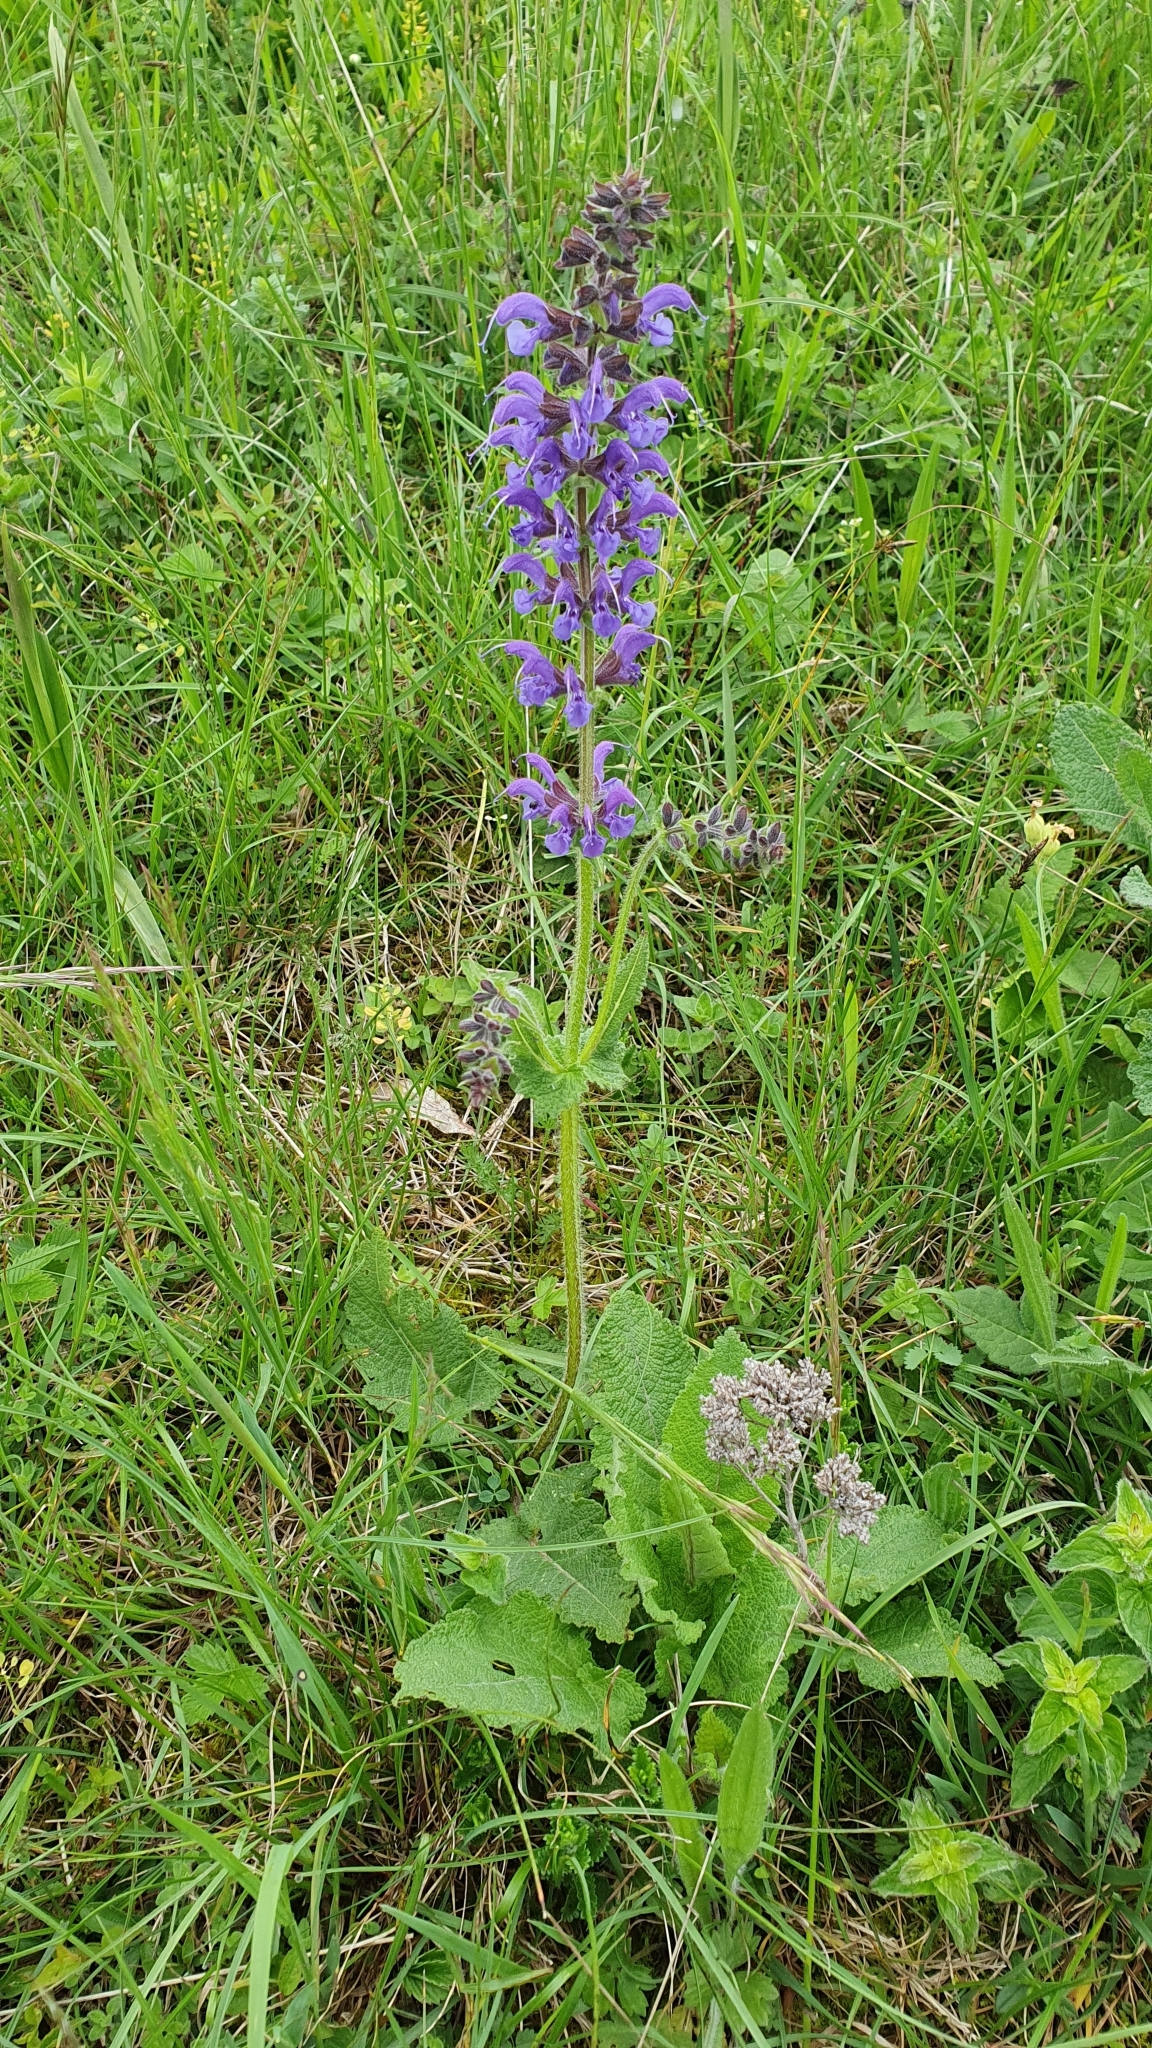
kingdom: Plantae
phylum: Tracheophyta
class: Magnoliopsida
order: Lamiales
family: Lamiaceae
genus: Salvia
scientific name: Salvia pratensis
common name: Meadow sage
